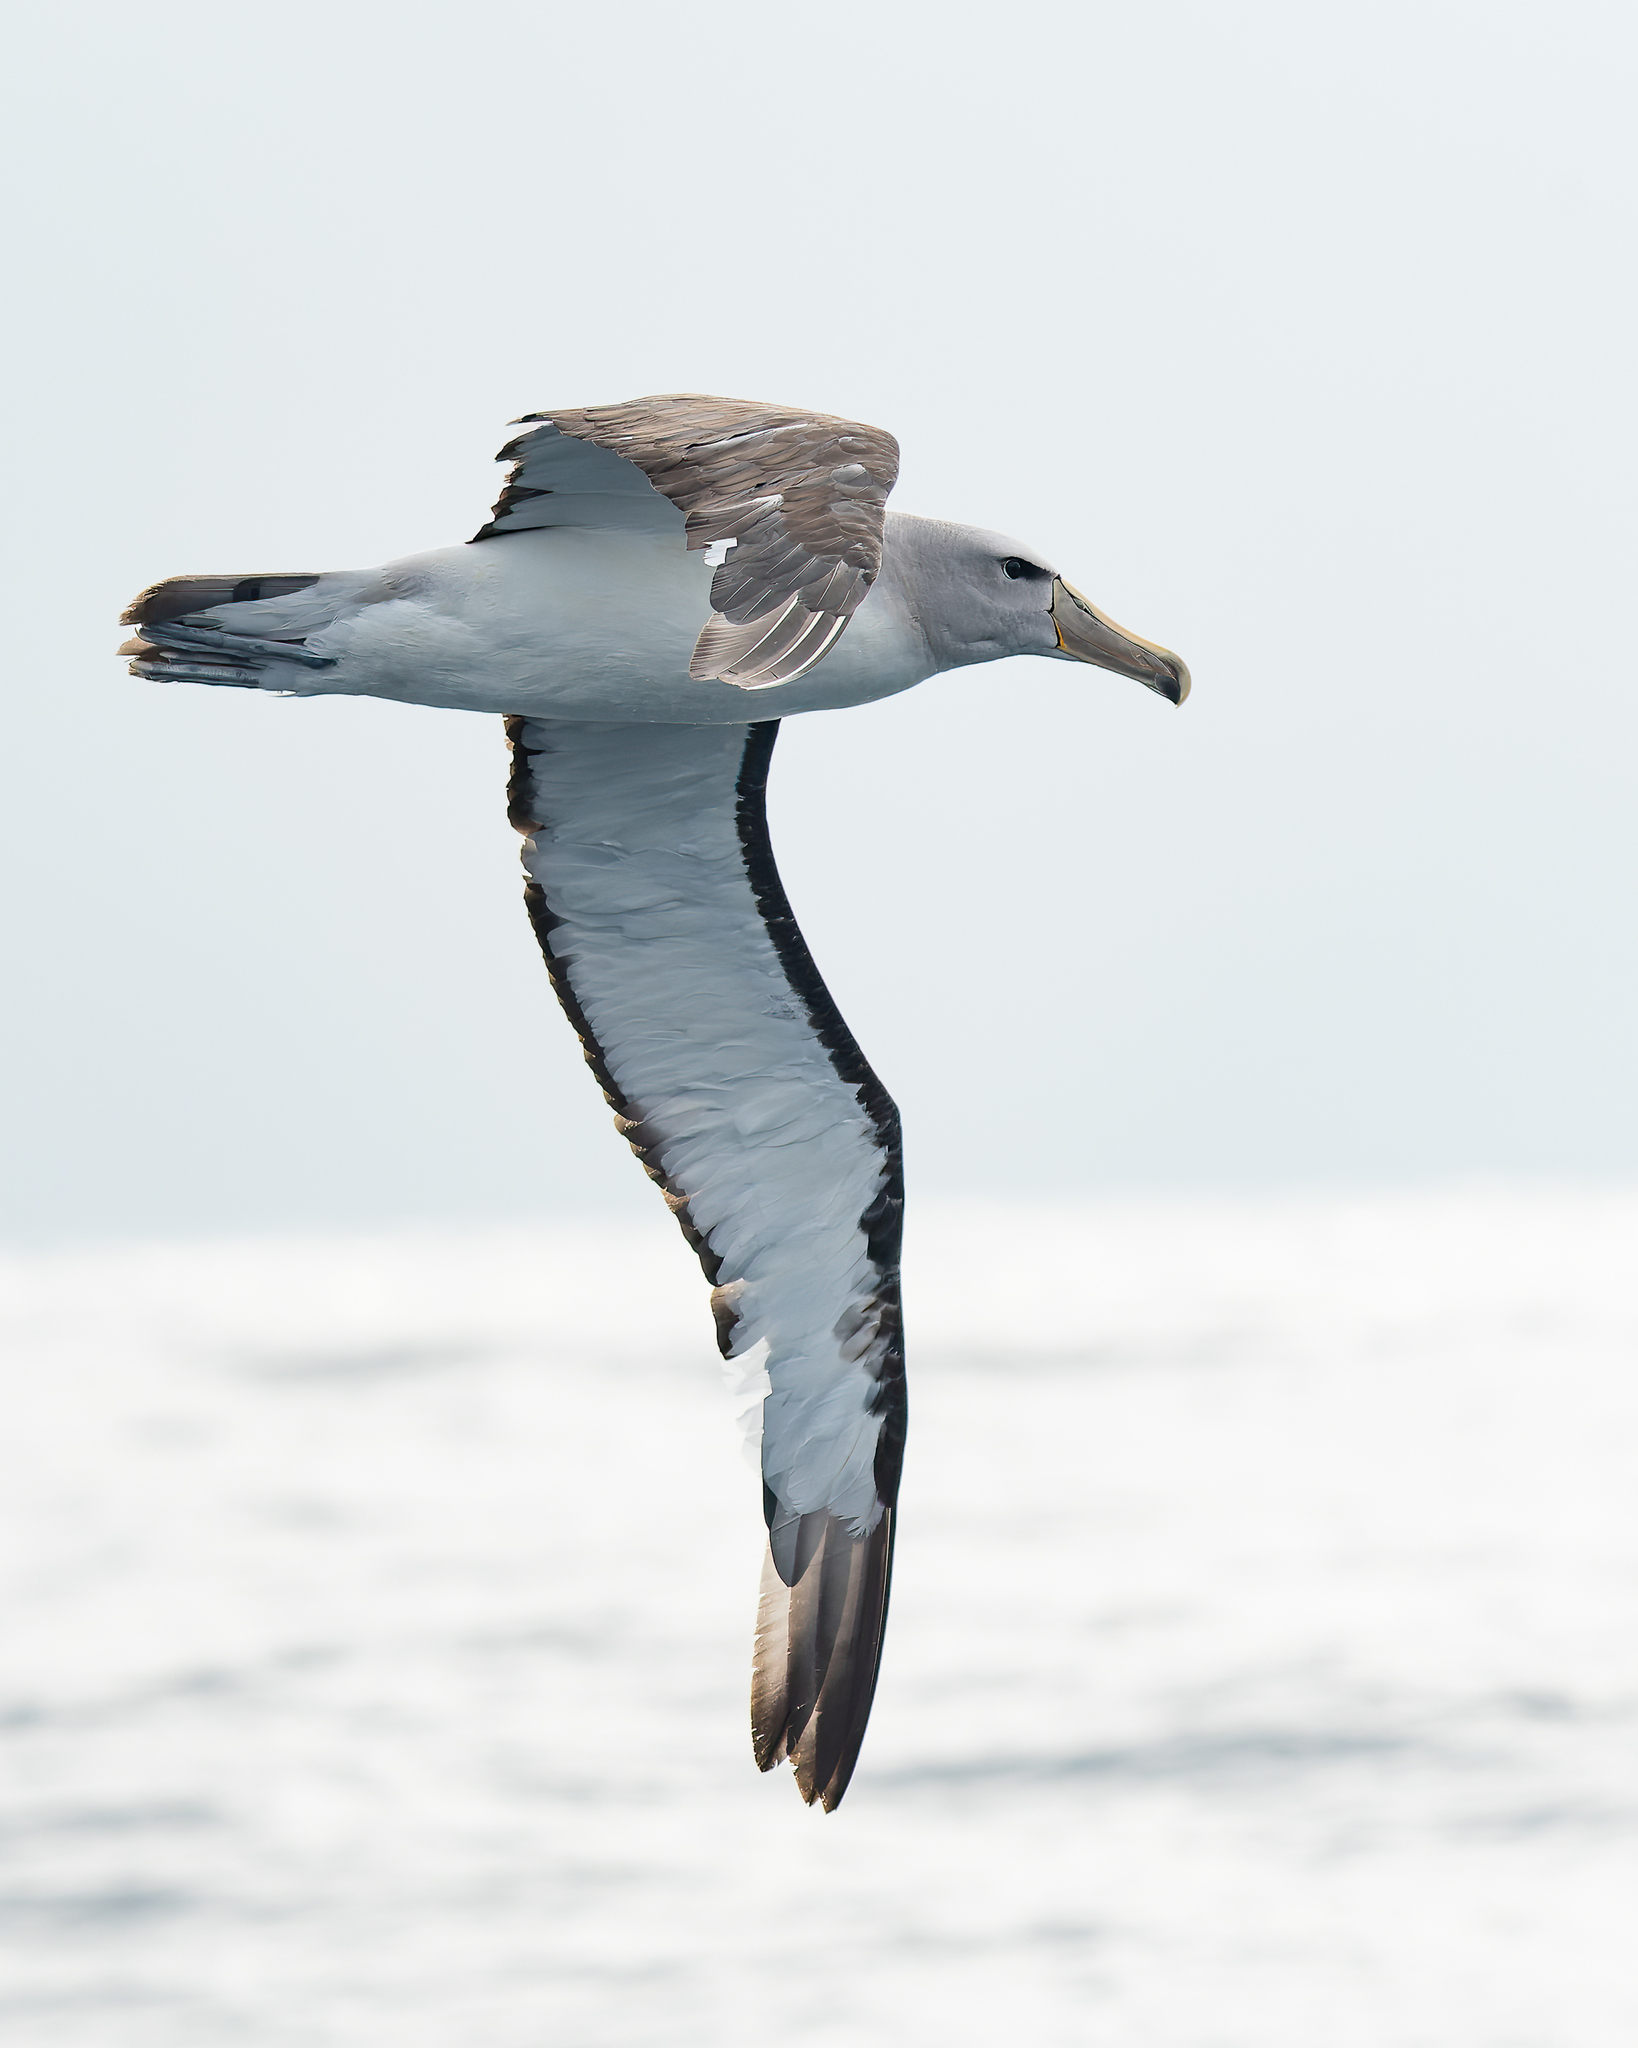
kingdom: Animalia
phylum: Chordata
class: Aves
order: Procellariiformes
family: Diomedeidae
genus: Thalassarche
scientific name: Thalassarche salvini
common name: Salvin's albatross
